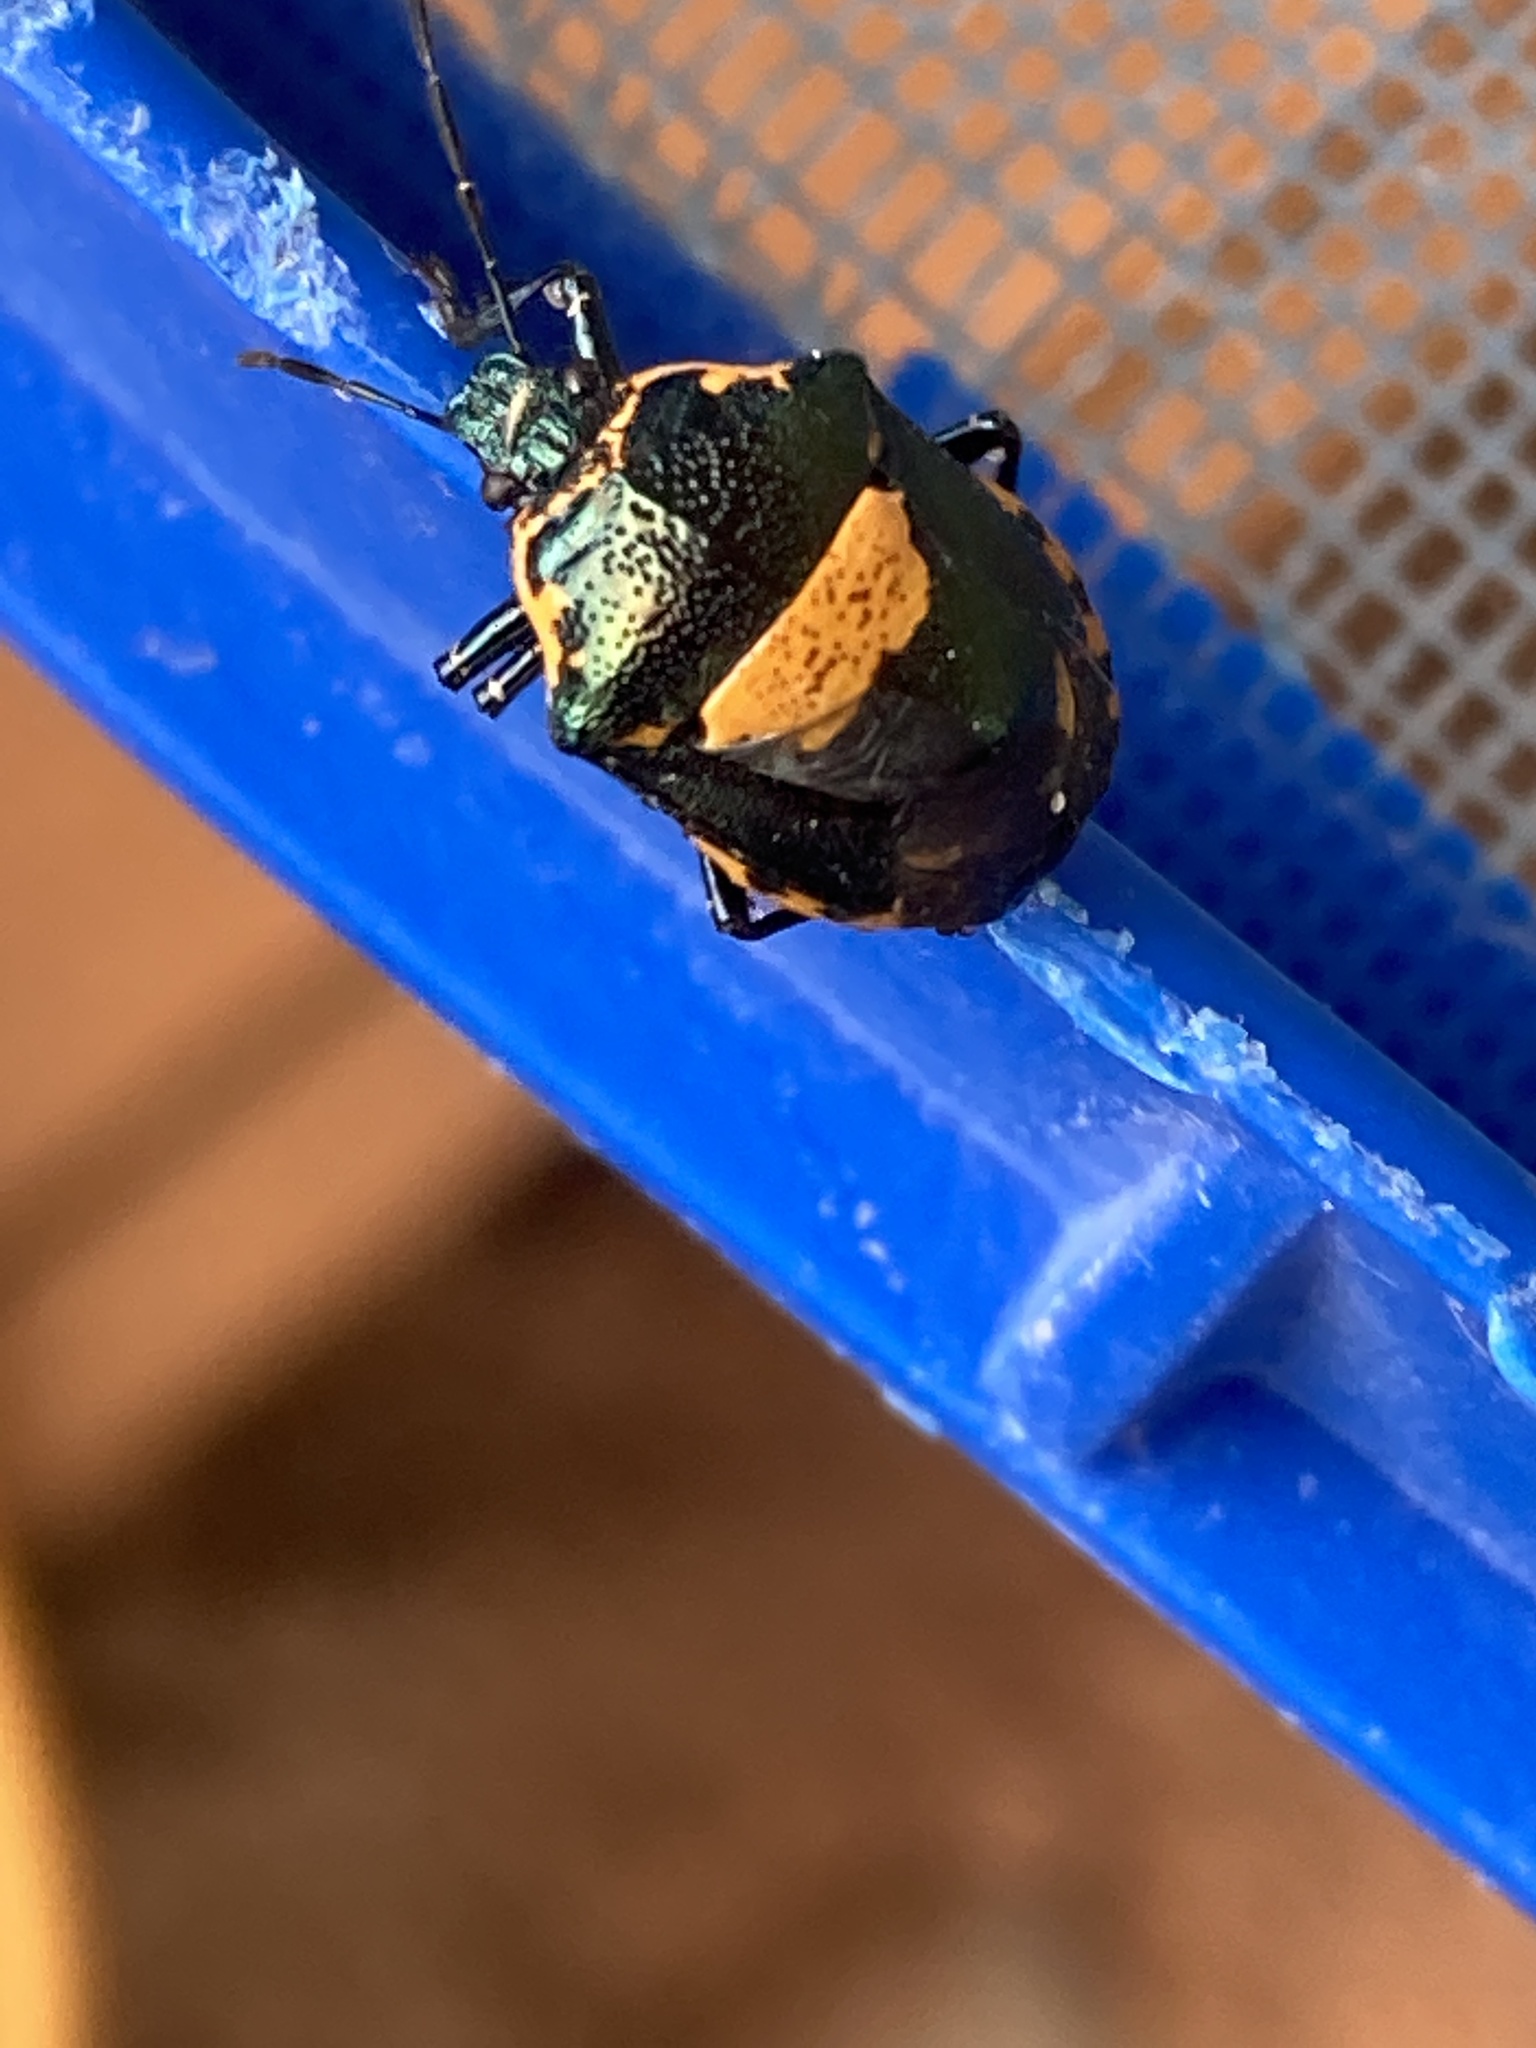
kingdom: Animalia
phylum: Arthropoda
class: Insecta
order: Hemiptera
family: Pentatomidae
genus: Stiretrus
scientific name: Stiretrus anchorago
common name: Anchor stink bug
